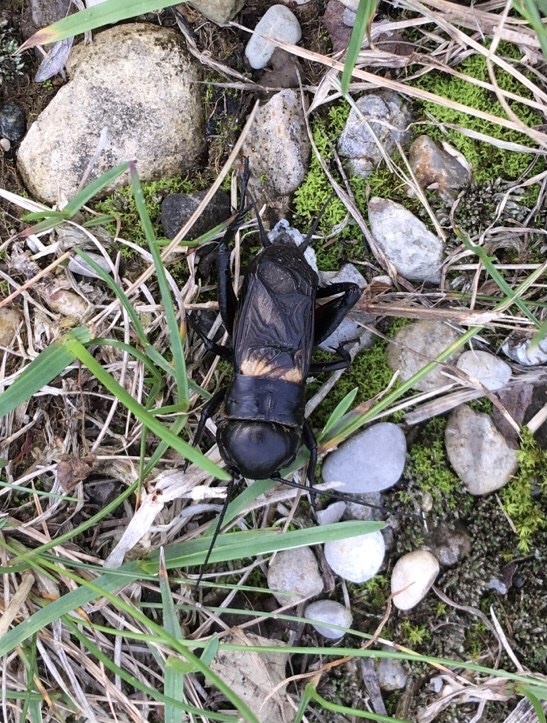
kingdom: Animalia
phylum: Arthropoda
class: Insecta
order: Orthoptera
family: Gryllidae
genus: Gryllus
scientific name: Gryllus campestris
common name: Field cricket
